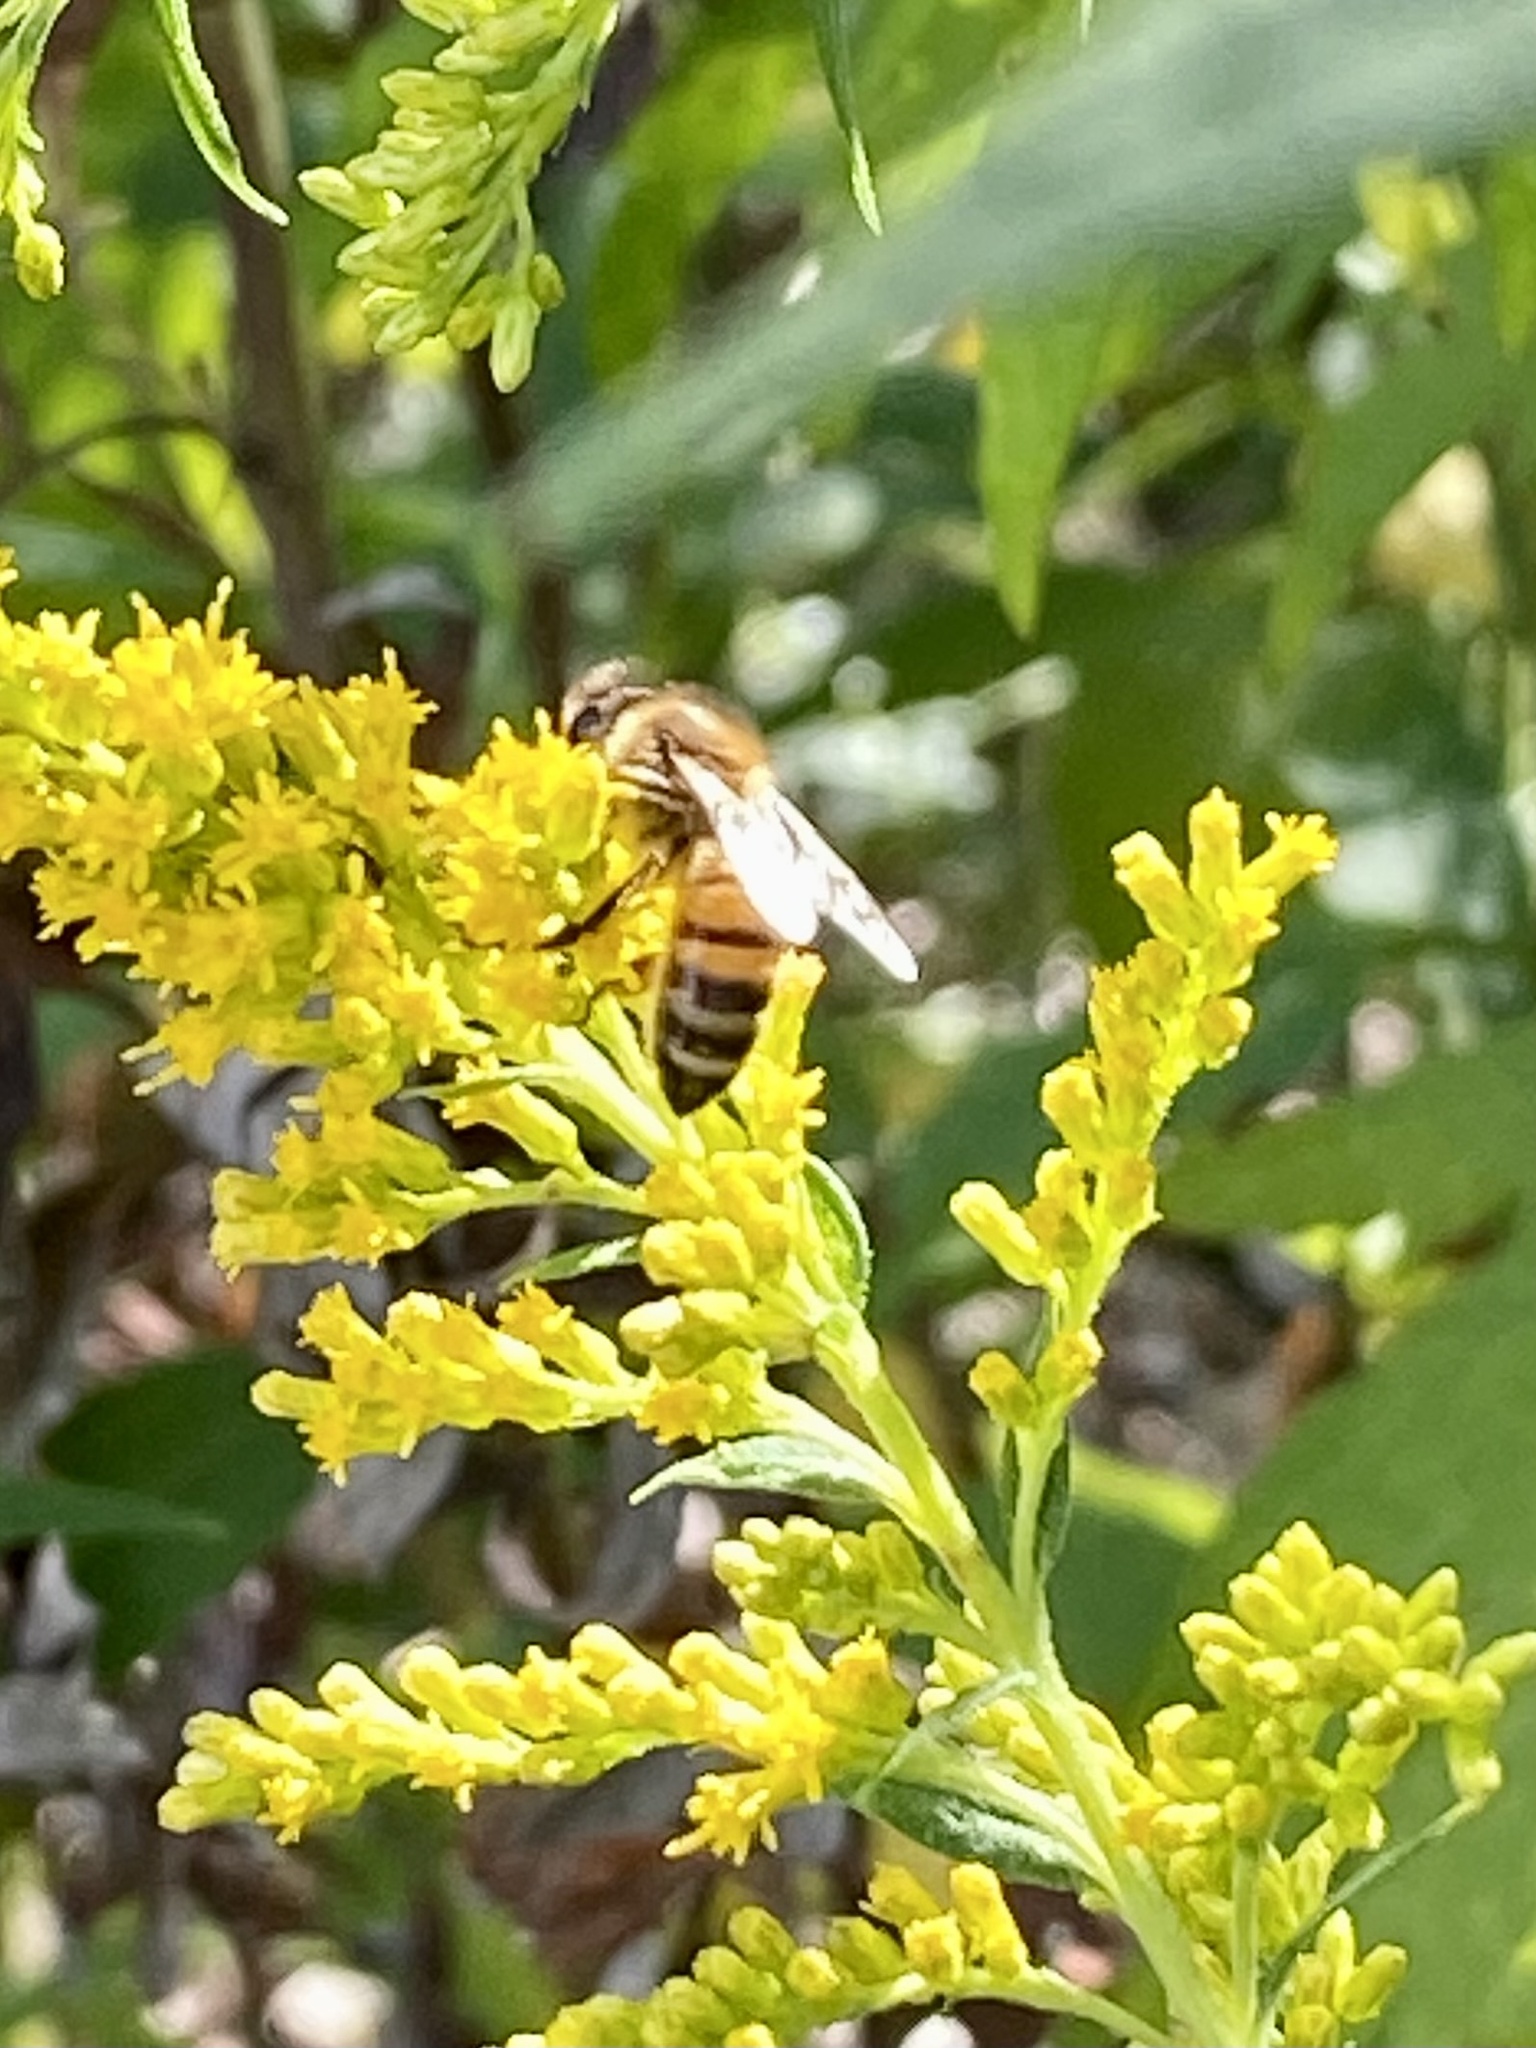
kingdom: Animalia
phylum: Arthropoda
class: Insecta
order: Hymenoptera
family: Apidae
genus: Apis
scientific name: Apis mellifera
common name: Honey bee
